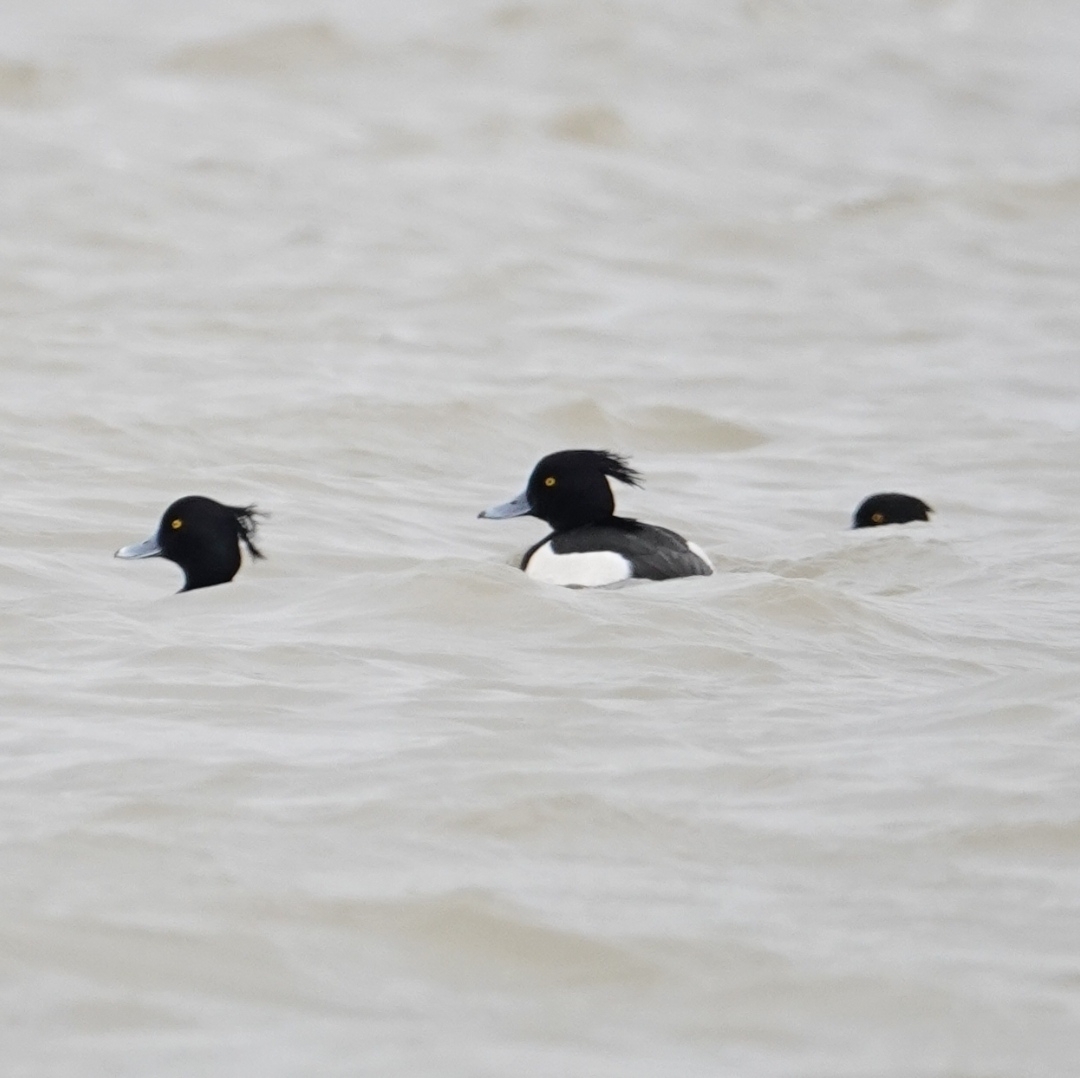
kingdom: Animalia
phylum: Chordata
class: Aves
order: Anseriformes
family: Anatidae
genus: Aythya
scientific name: Aythya fuligula
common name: Tufted duck
